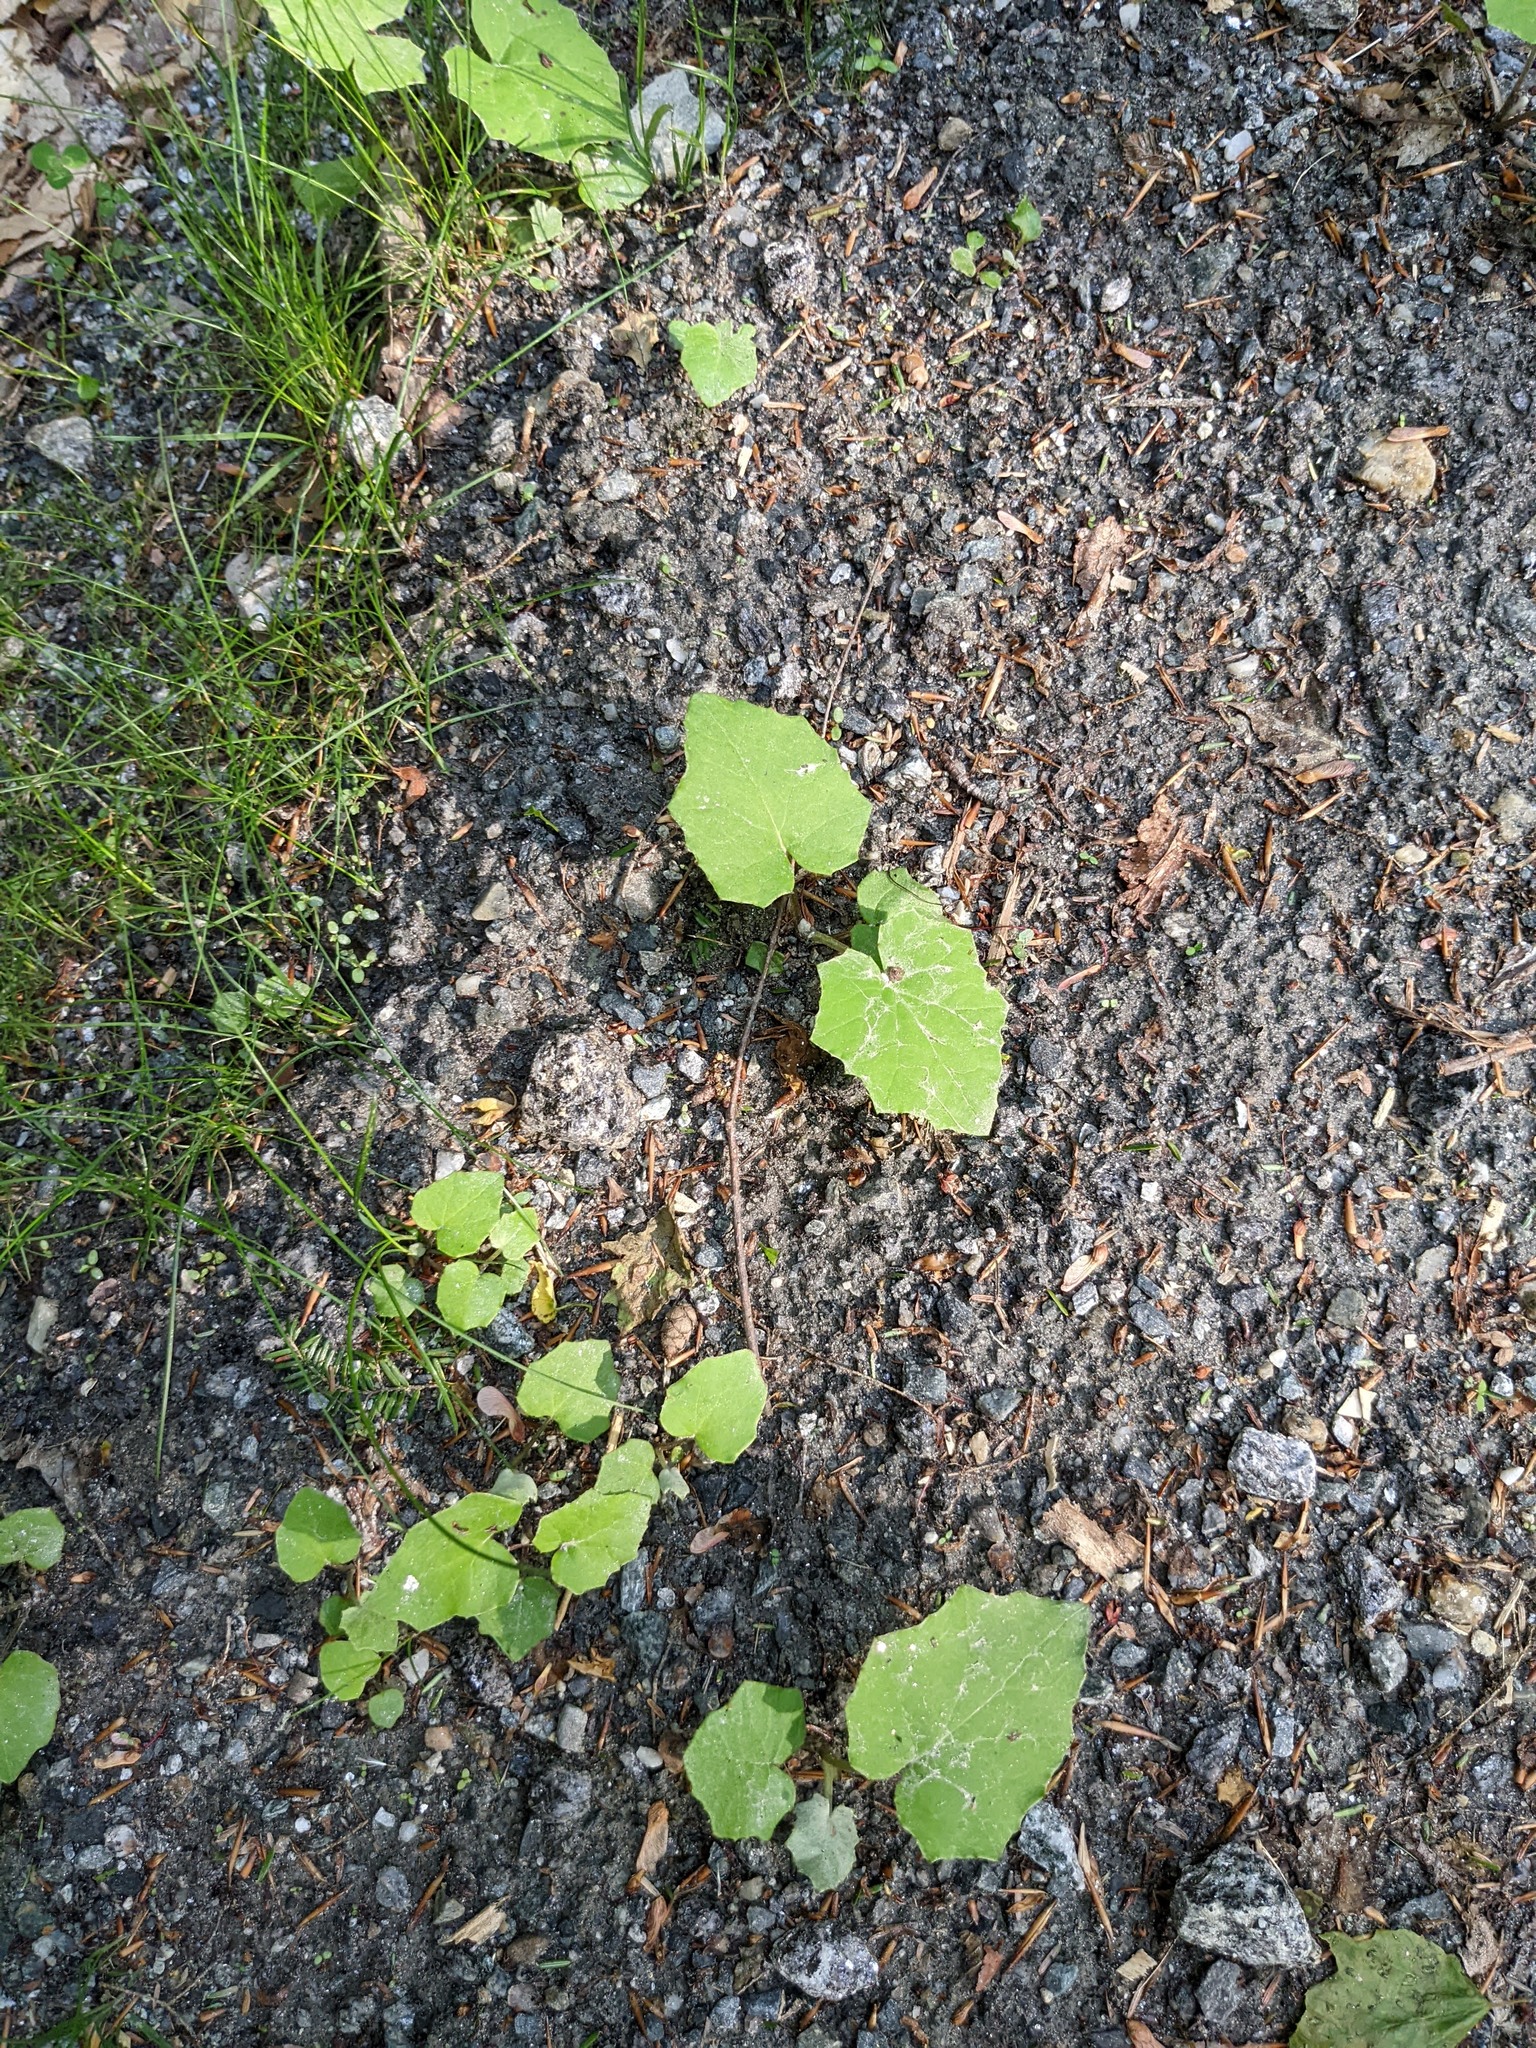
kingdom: Plantae
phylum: Tracheophyta
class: Magnoliopsida
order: Asterales
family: Asteraceae
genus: Tussilago
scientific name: Tussilago farfara
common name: Coltsfoot
